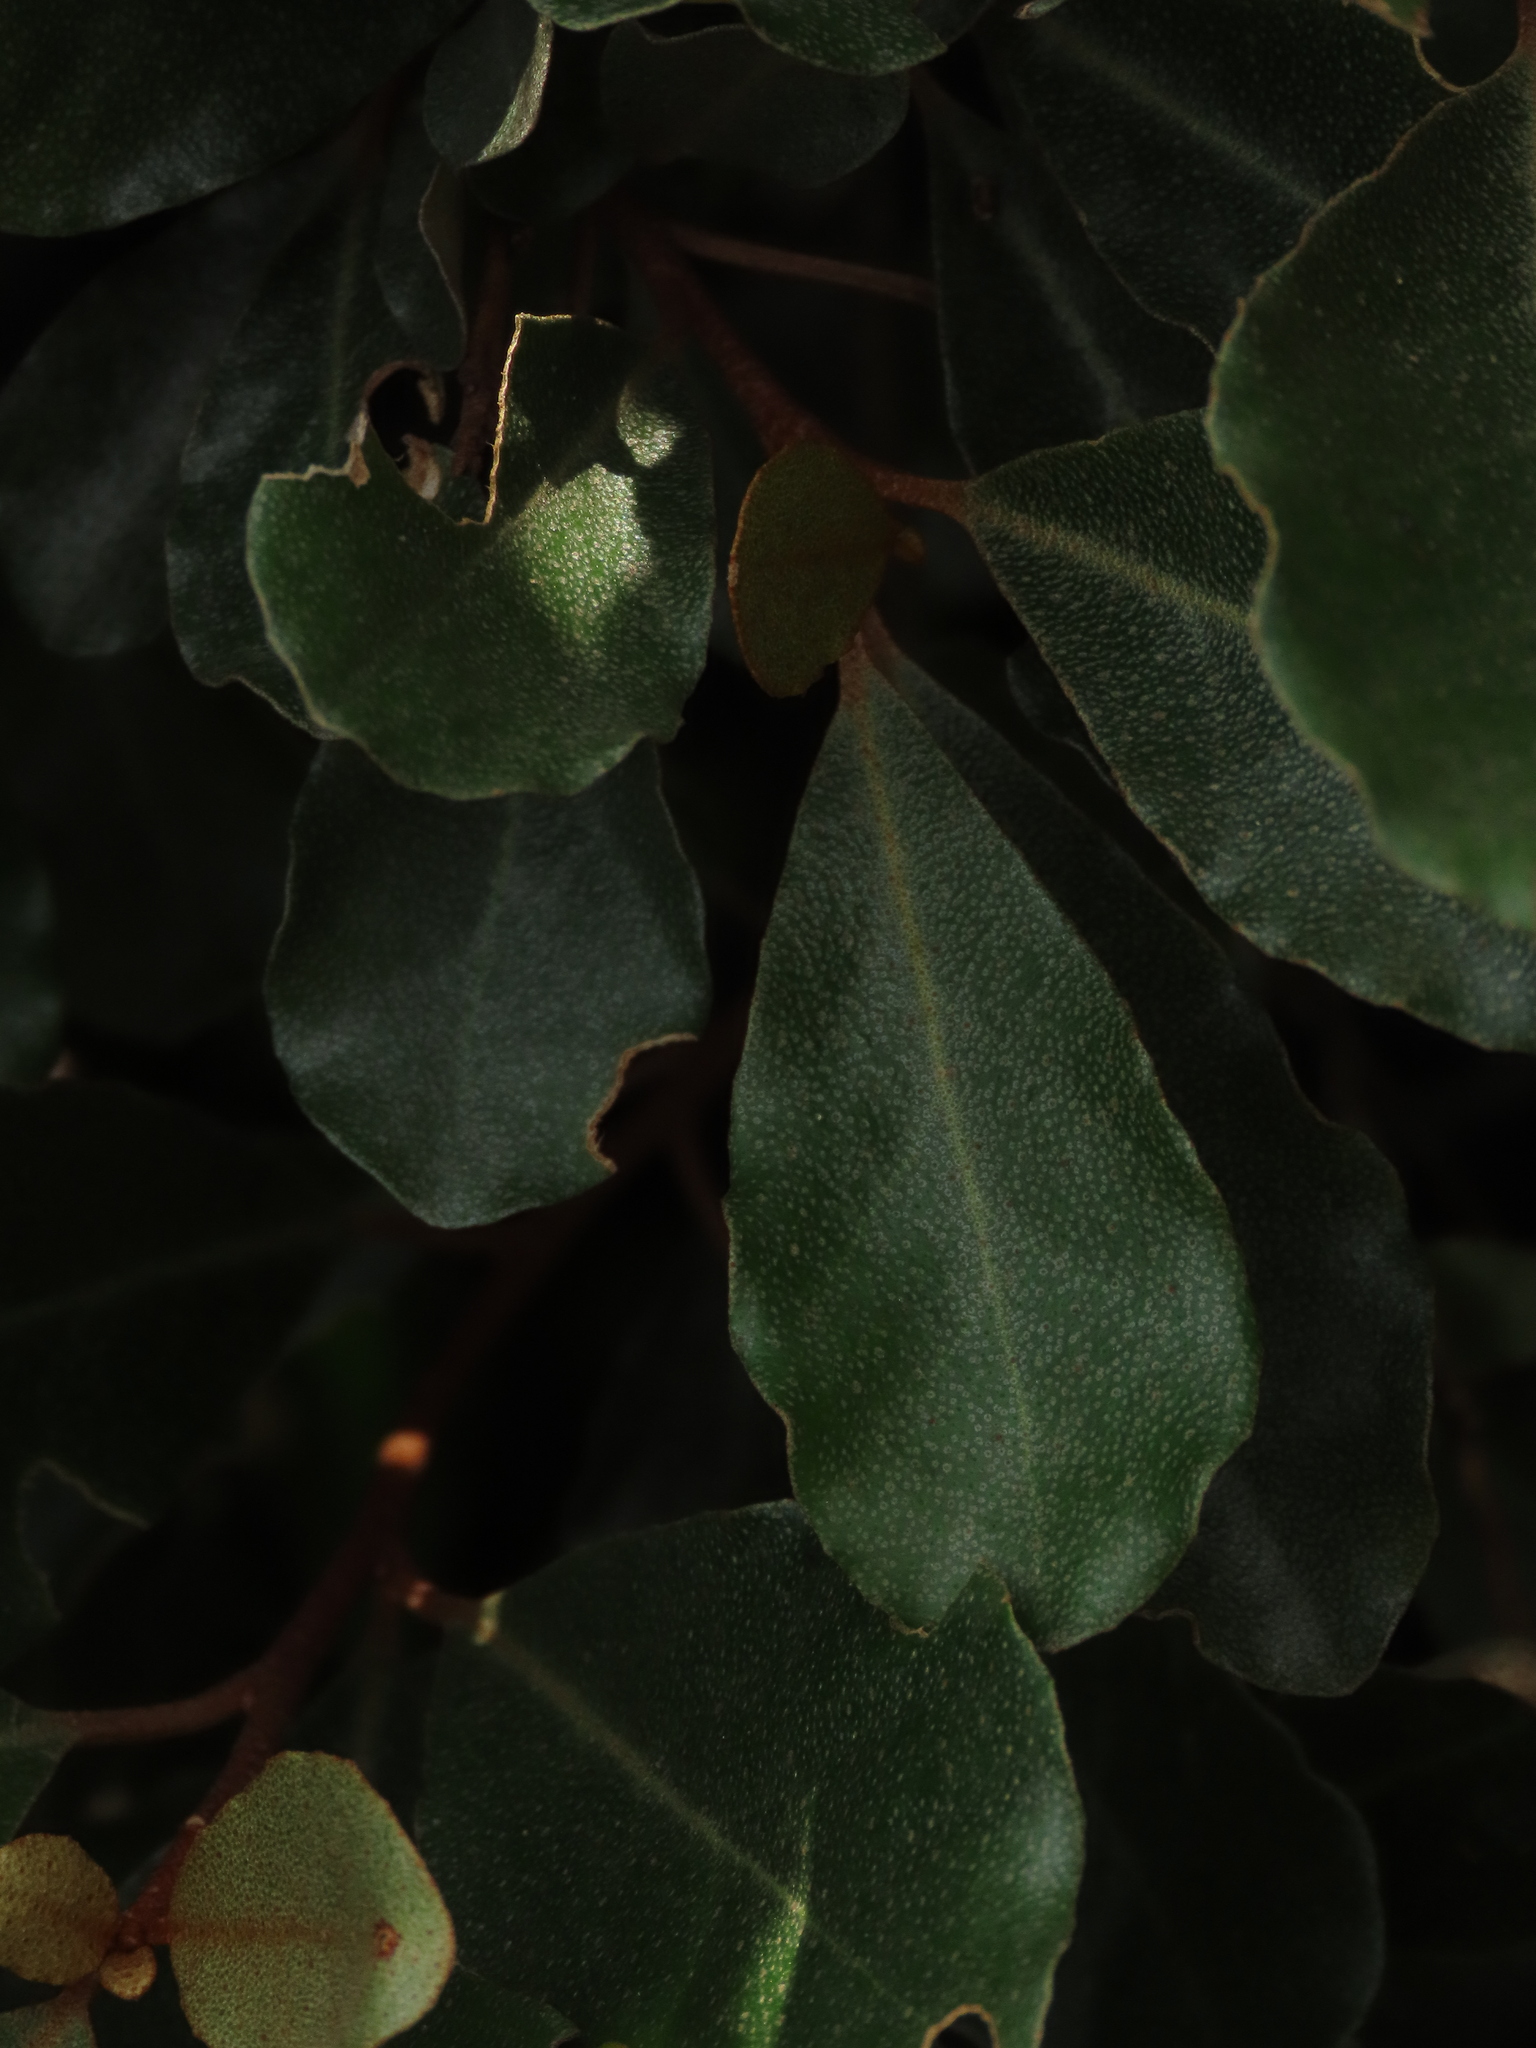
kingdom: Plantae
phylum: Tracheophyta
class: Magnoliopsida
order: Rosales
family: Elaeagnaceae
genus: Elaeagnus
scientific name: Elaeagnus oldhamii
